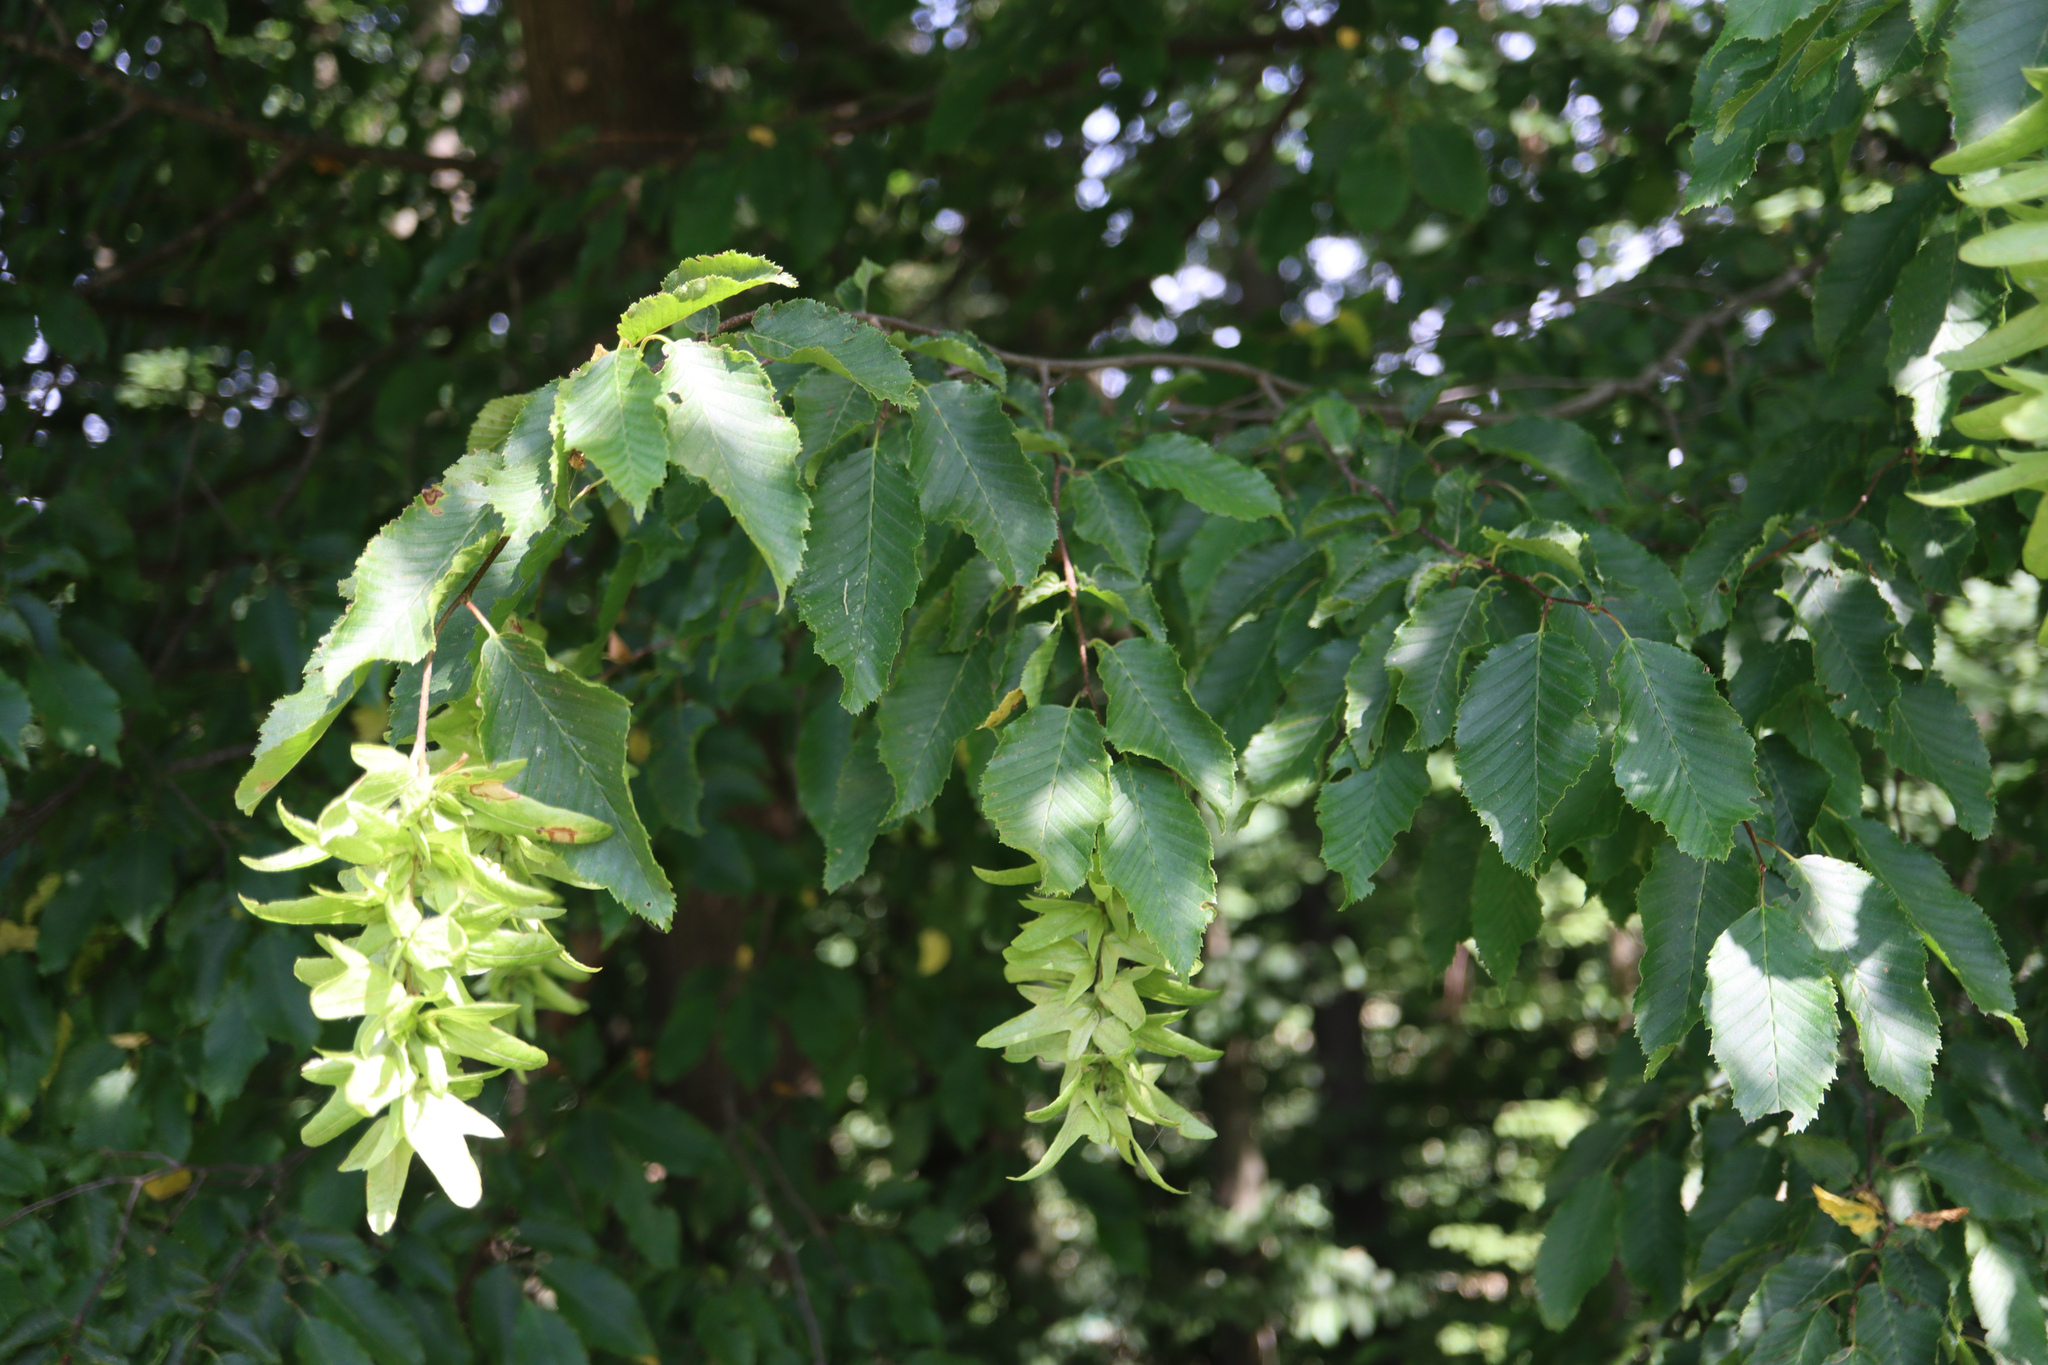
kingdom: Plantae
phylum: Tracheophyta
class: Magnoliopsida
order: Fagales
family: Betulaceae
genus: Carpinus
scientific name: Carpinus betulus
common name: Hornbeam
